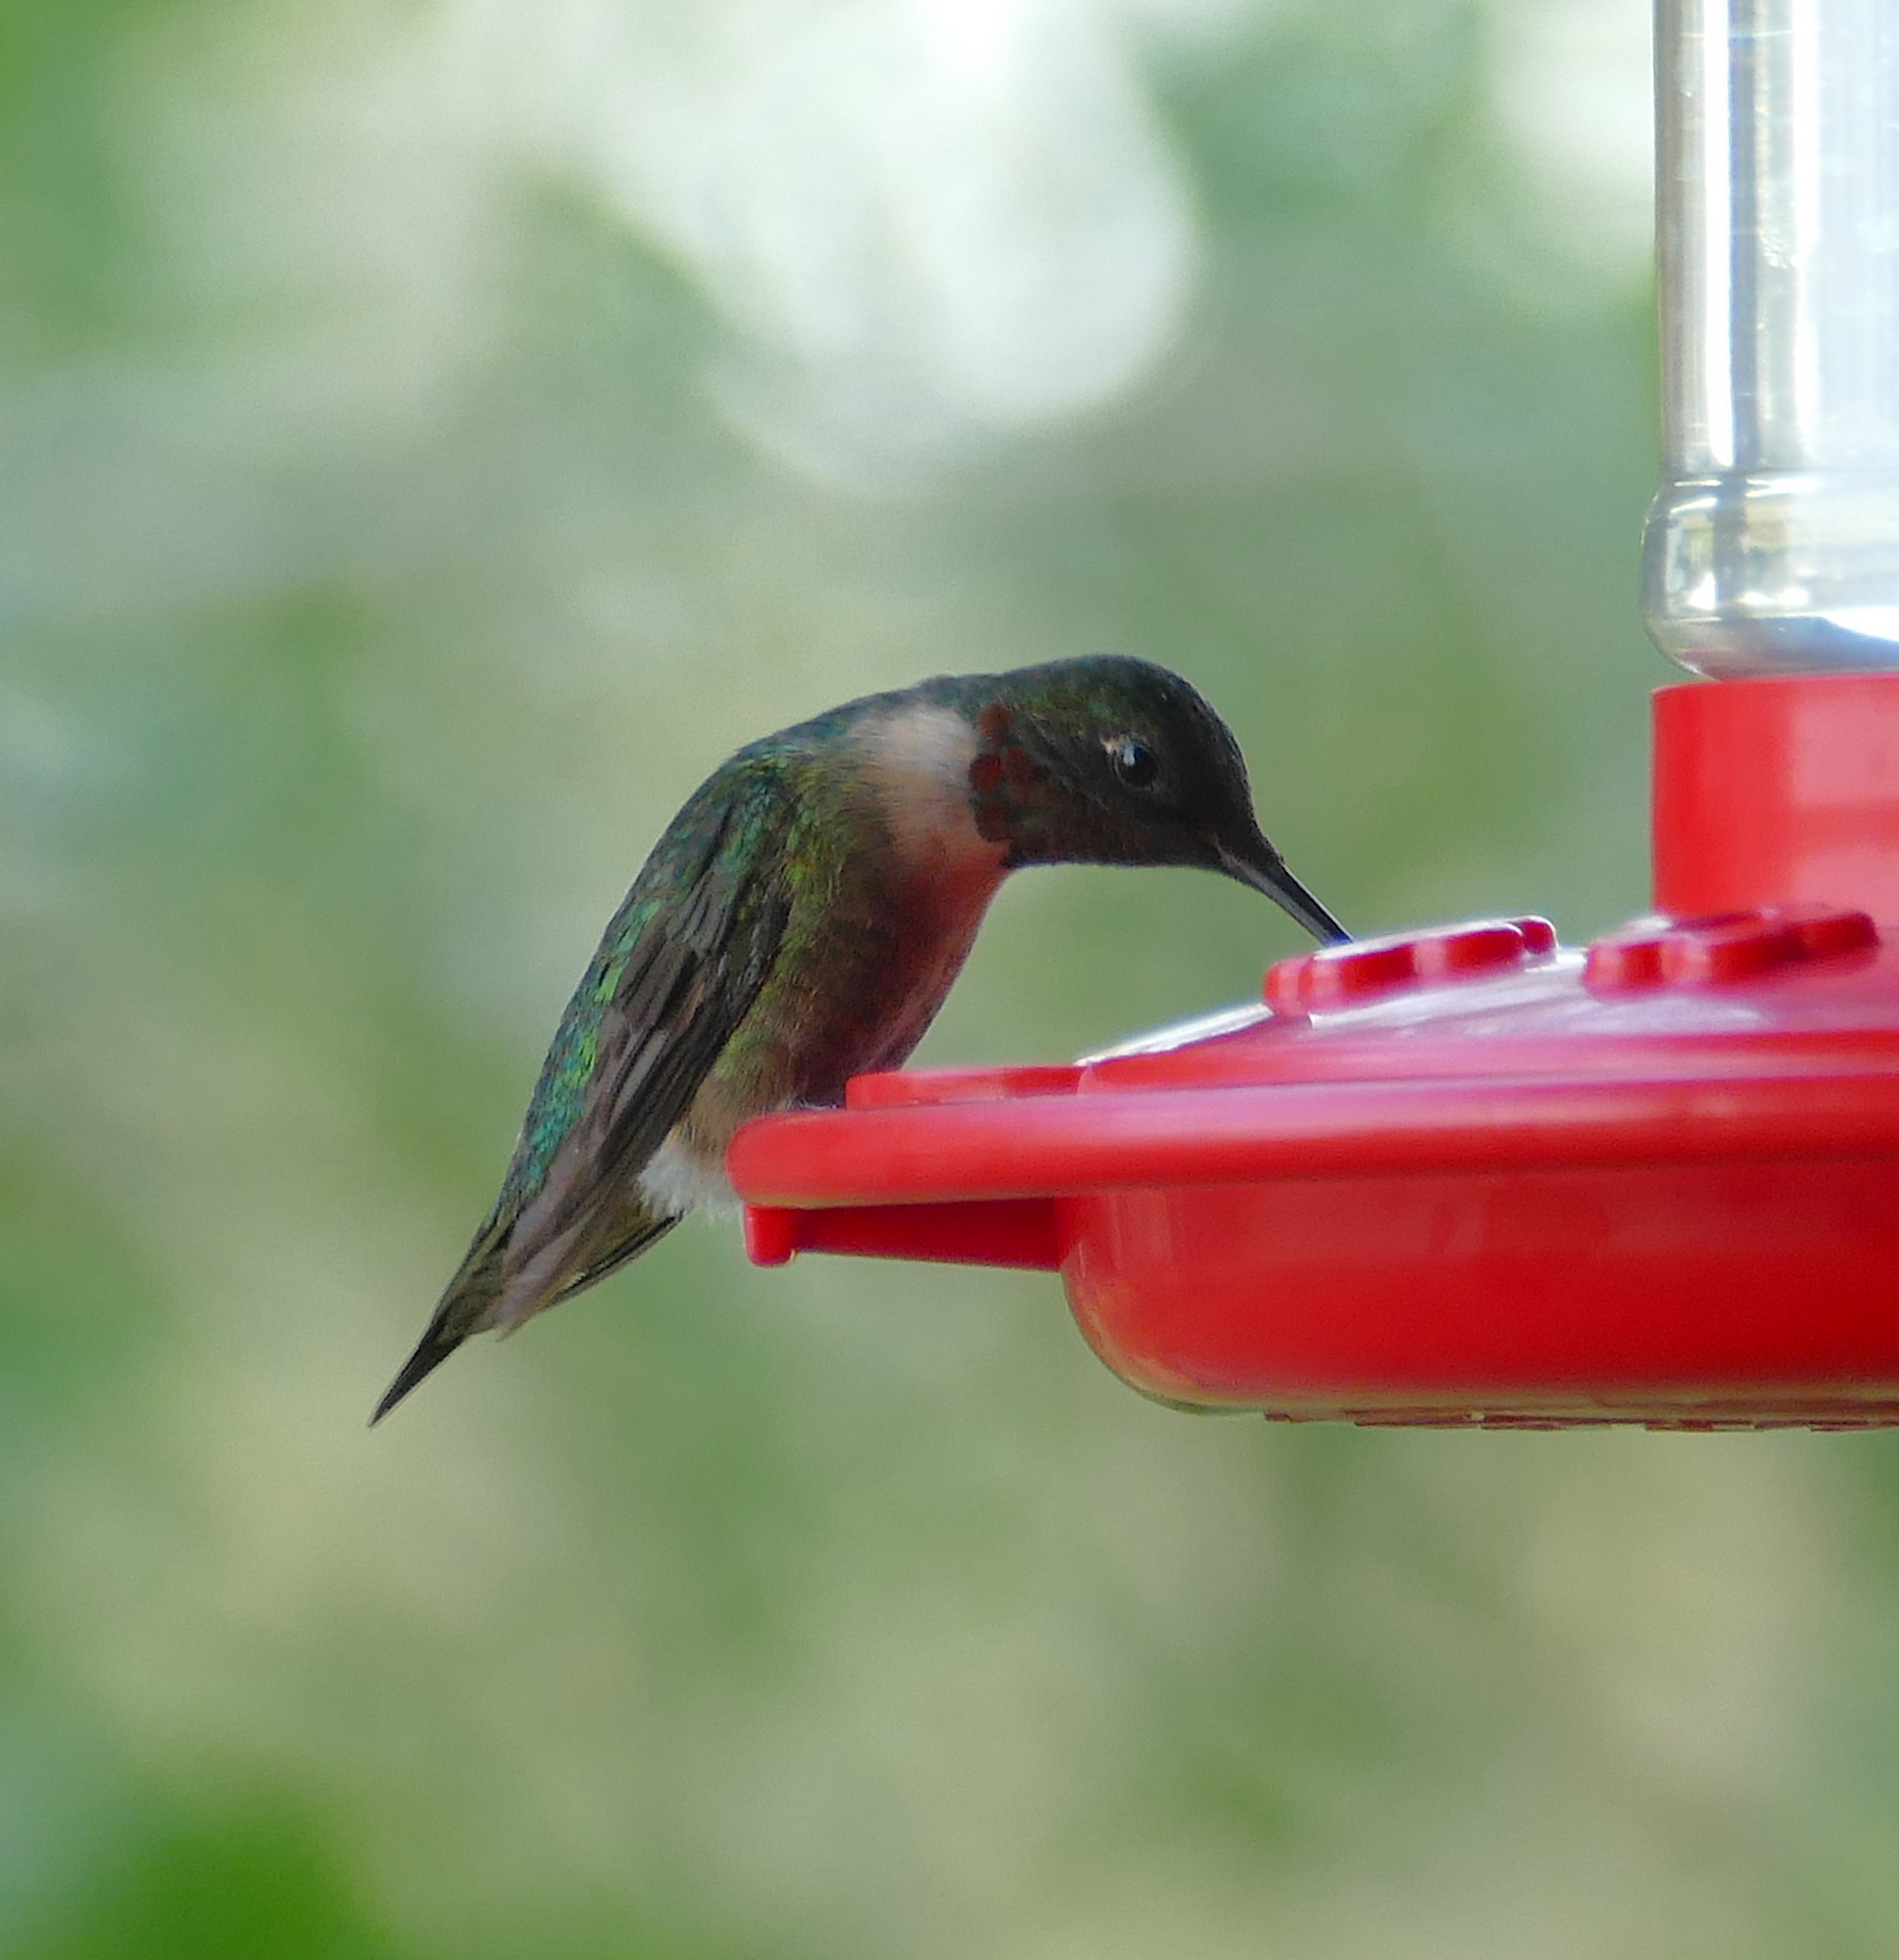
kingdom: Animalia
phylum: Chordata
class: Aves
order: Apodiformes
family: Trochilidae
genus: Archilochus
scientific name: Archilochus colubris
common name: Ruby-throated hummingbird
